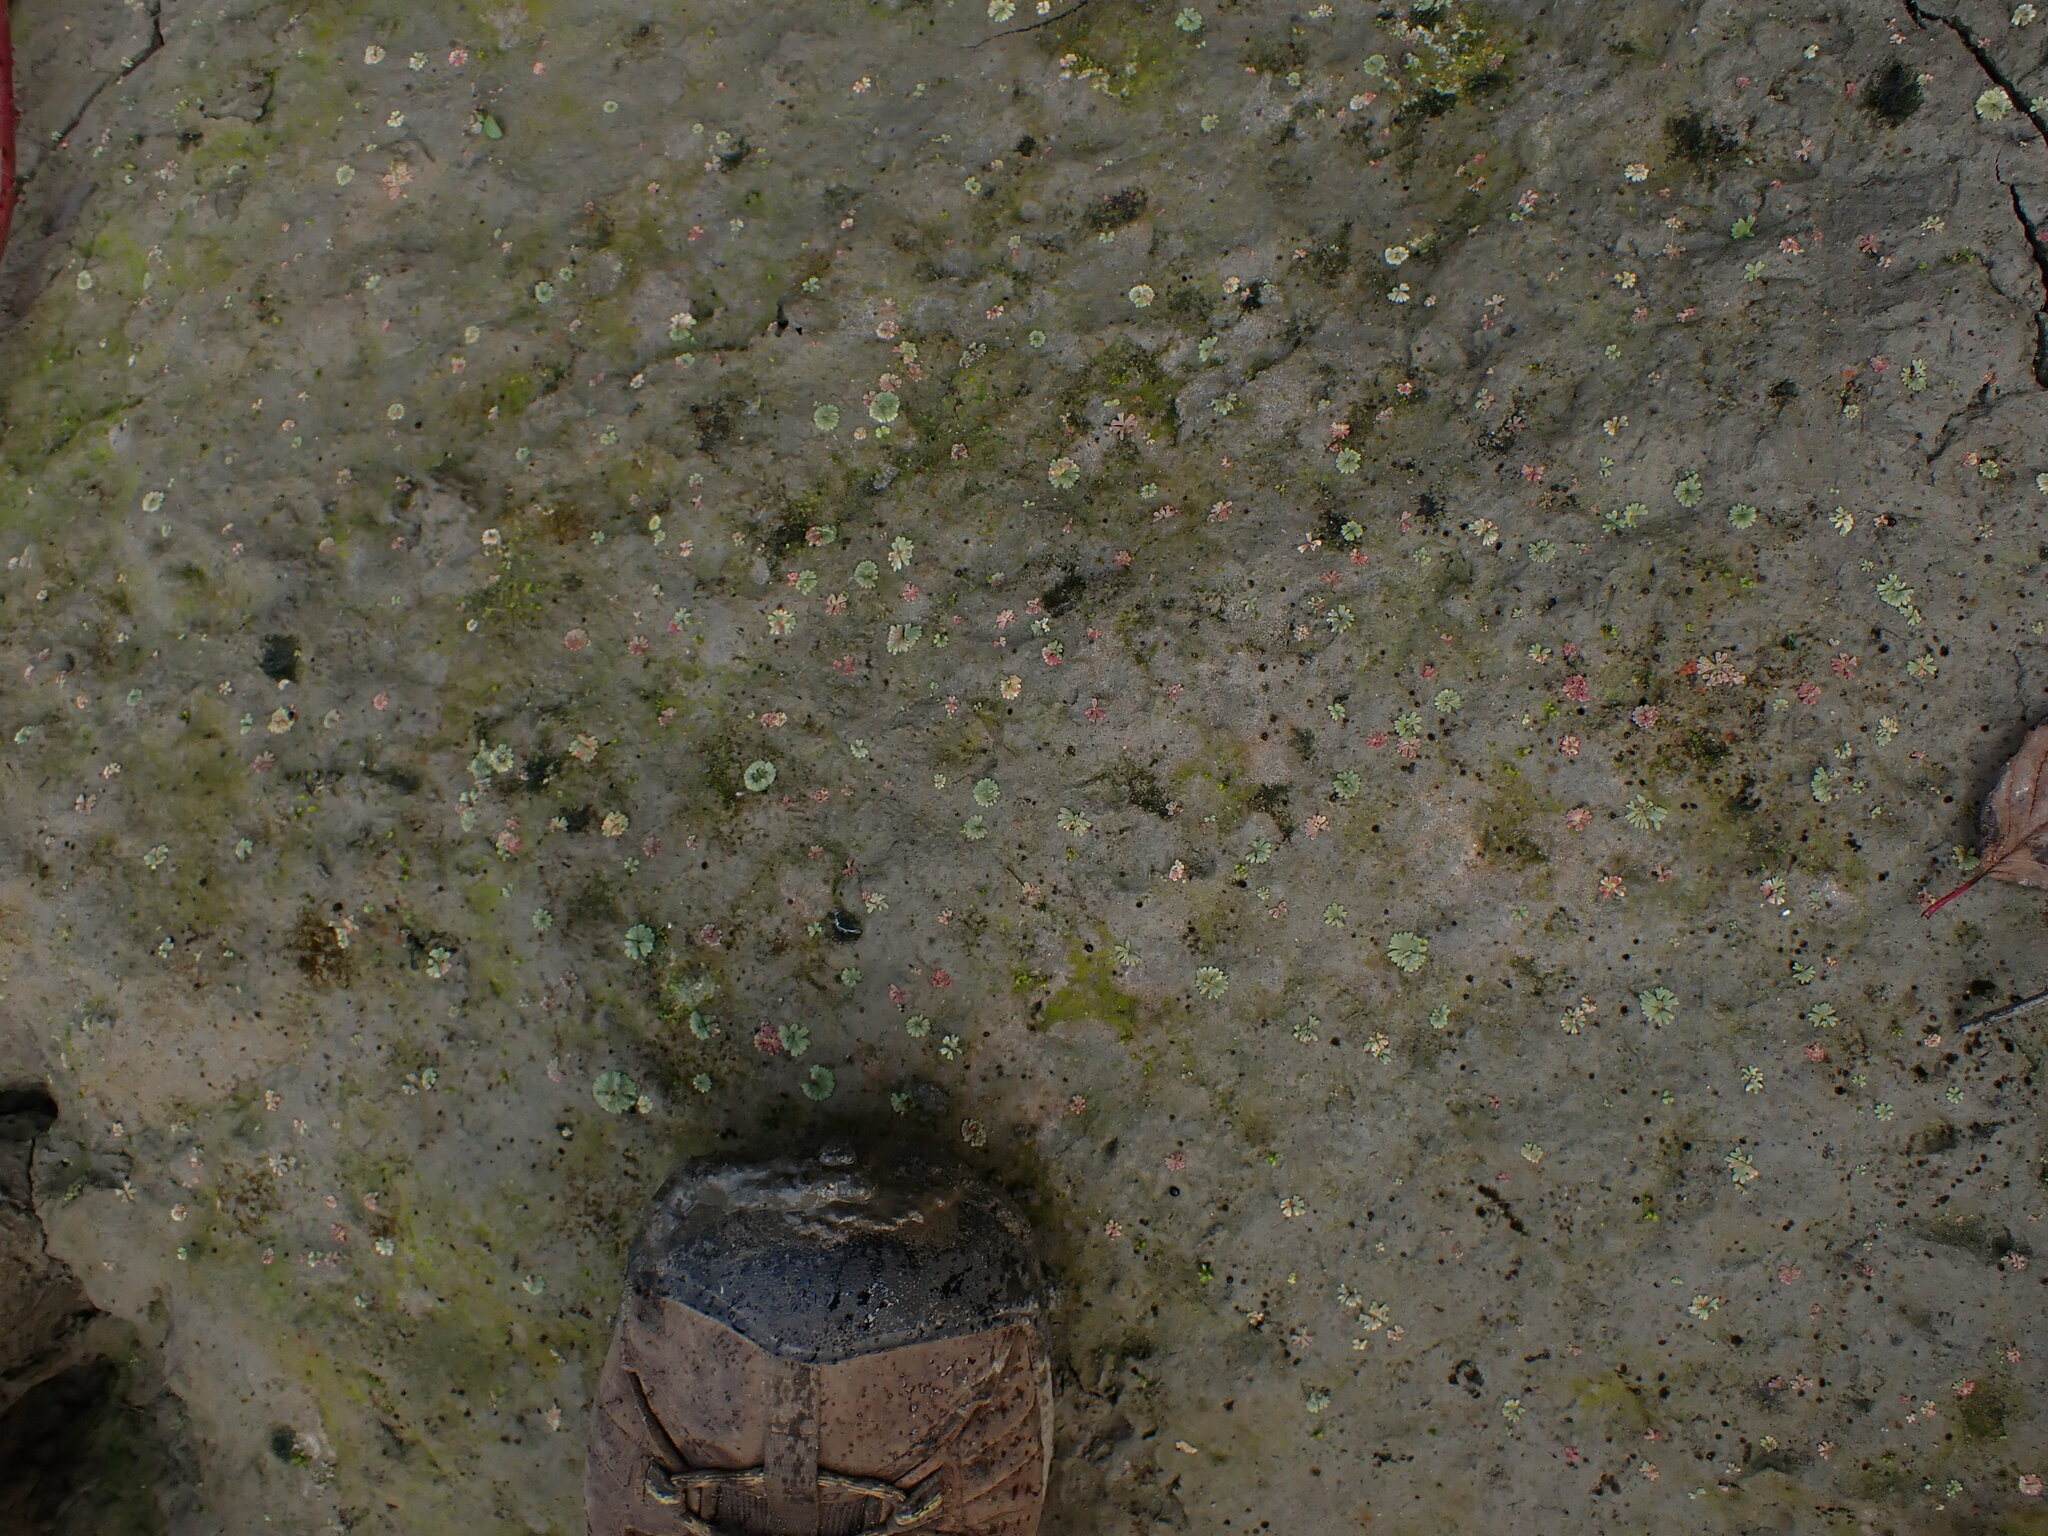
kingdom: Plantae
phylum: Marchantiophyta
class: Marchantiopsida
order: Marchantiales
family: Ricciaceae
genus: Riccia
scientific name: Riccia frostii
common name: Frost s crystalwort
